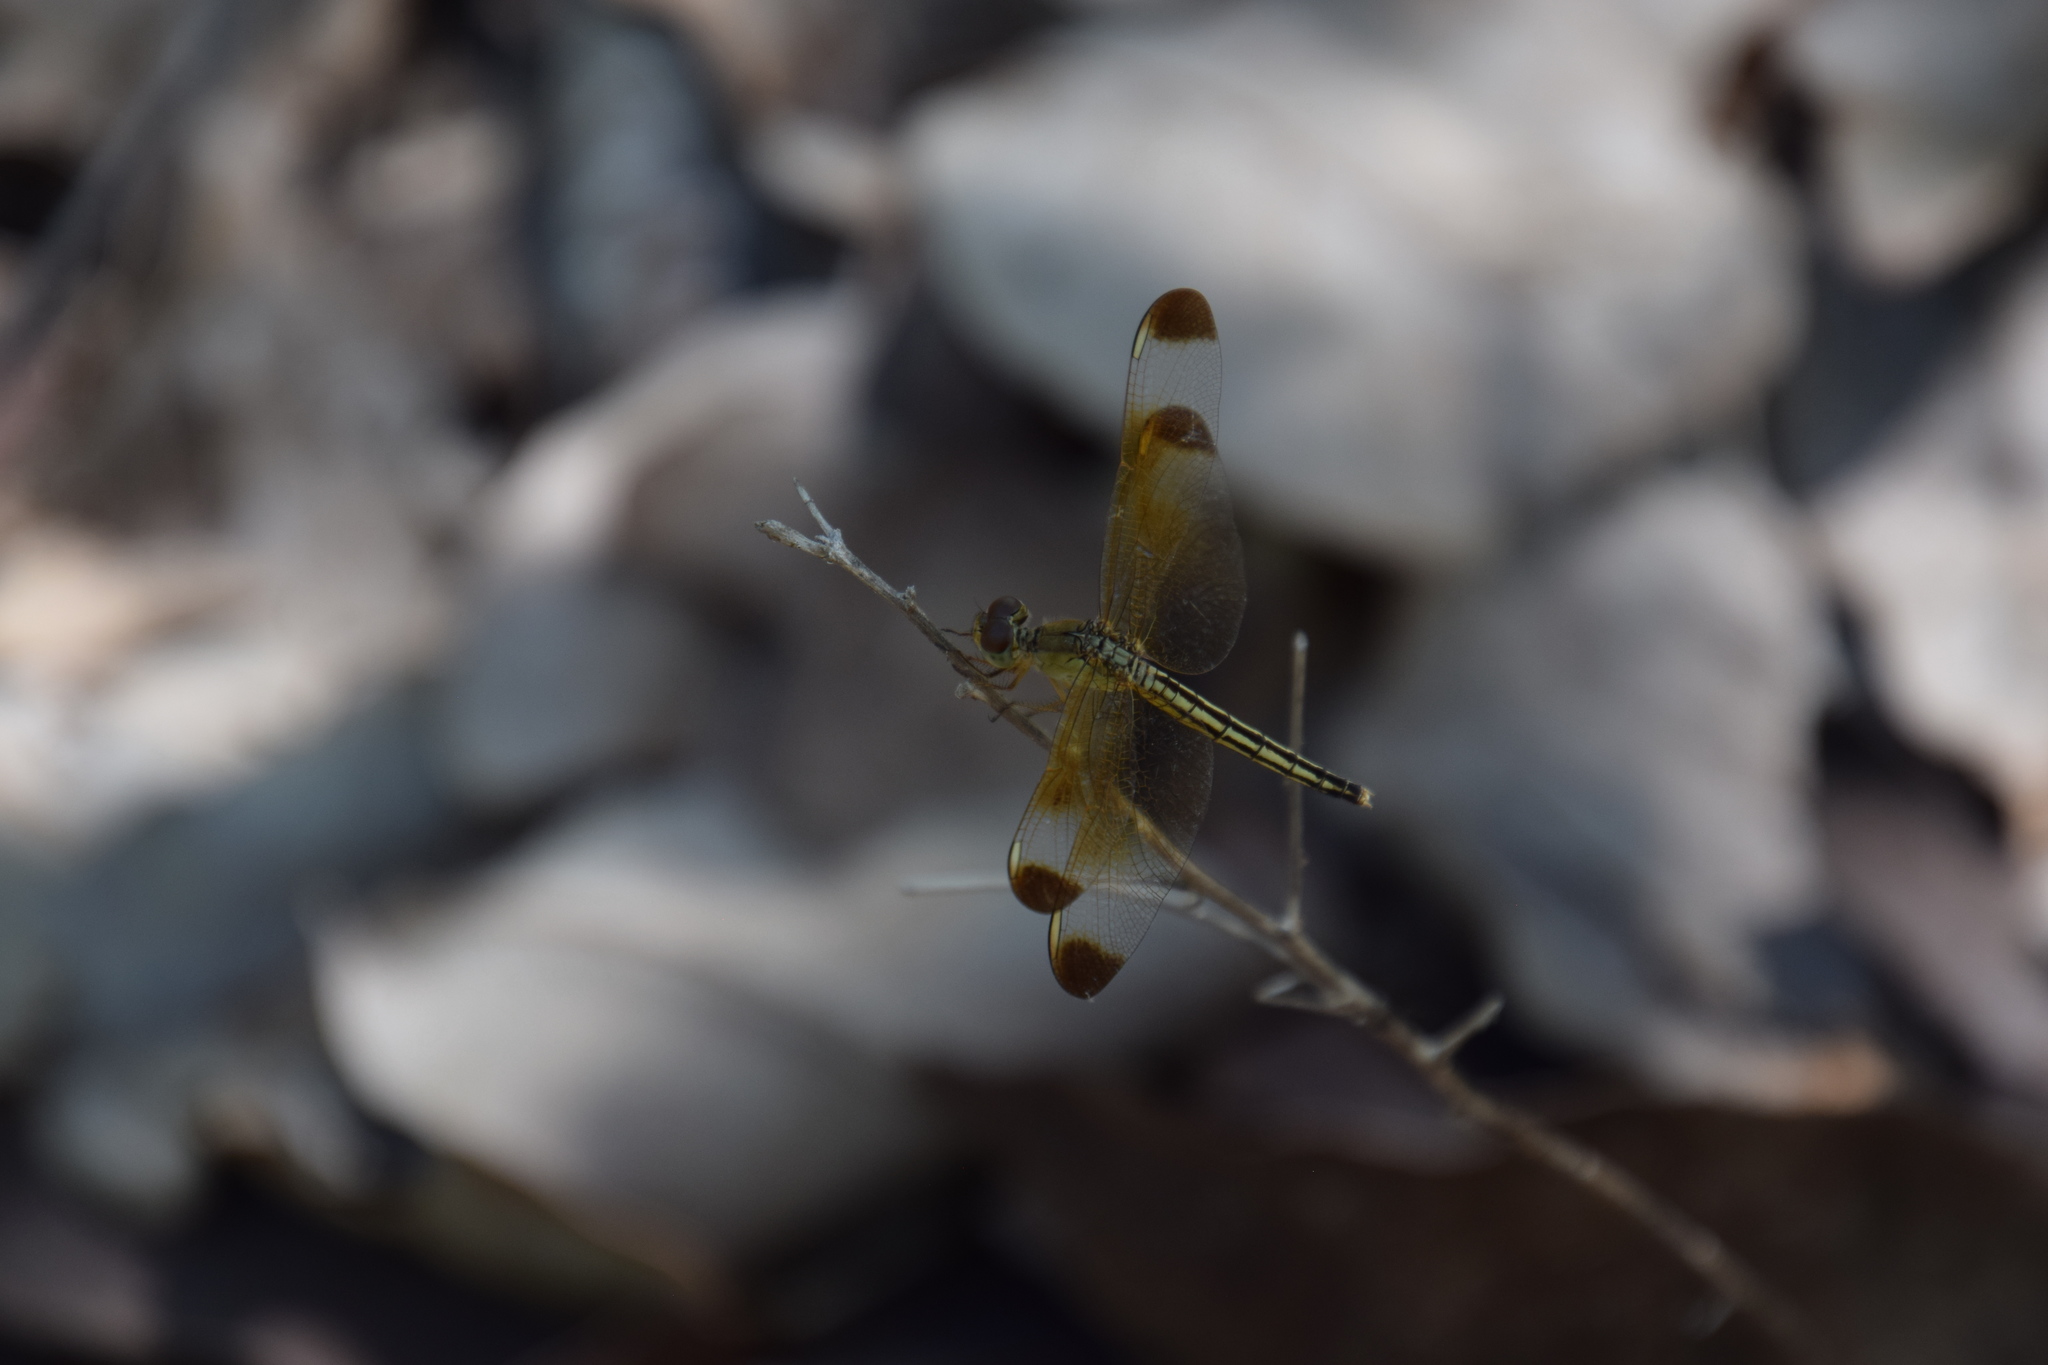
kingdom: Animalia
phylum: Arthropoda
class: Insecta
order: Odonata
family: Libellulidae
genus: Neurothemis
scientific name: Neurothemis stigmatizans
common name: Painted grasshawk
